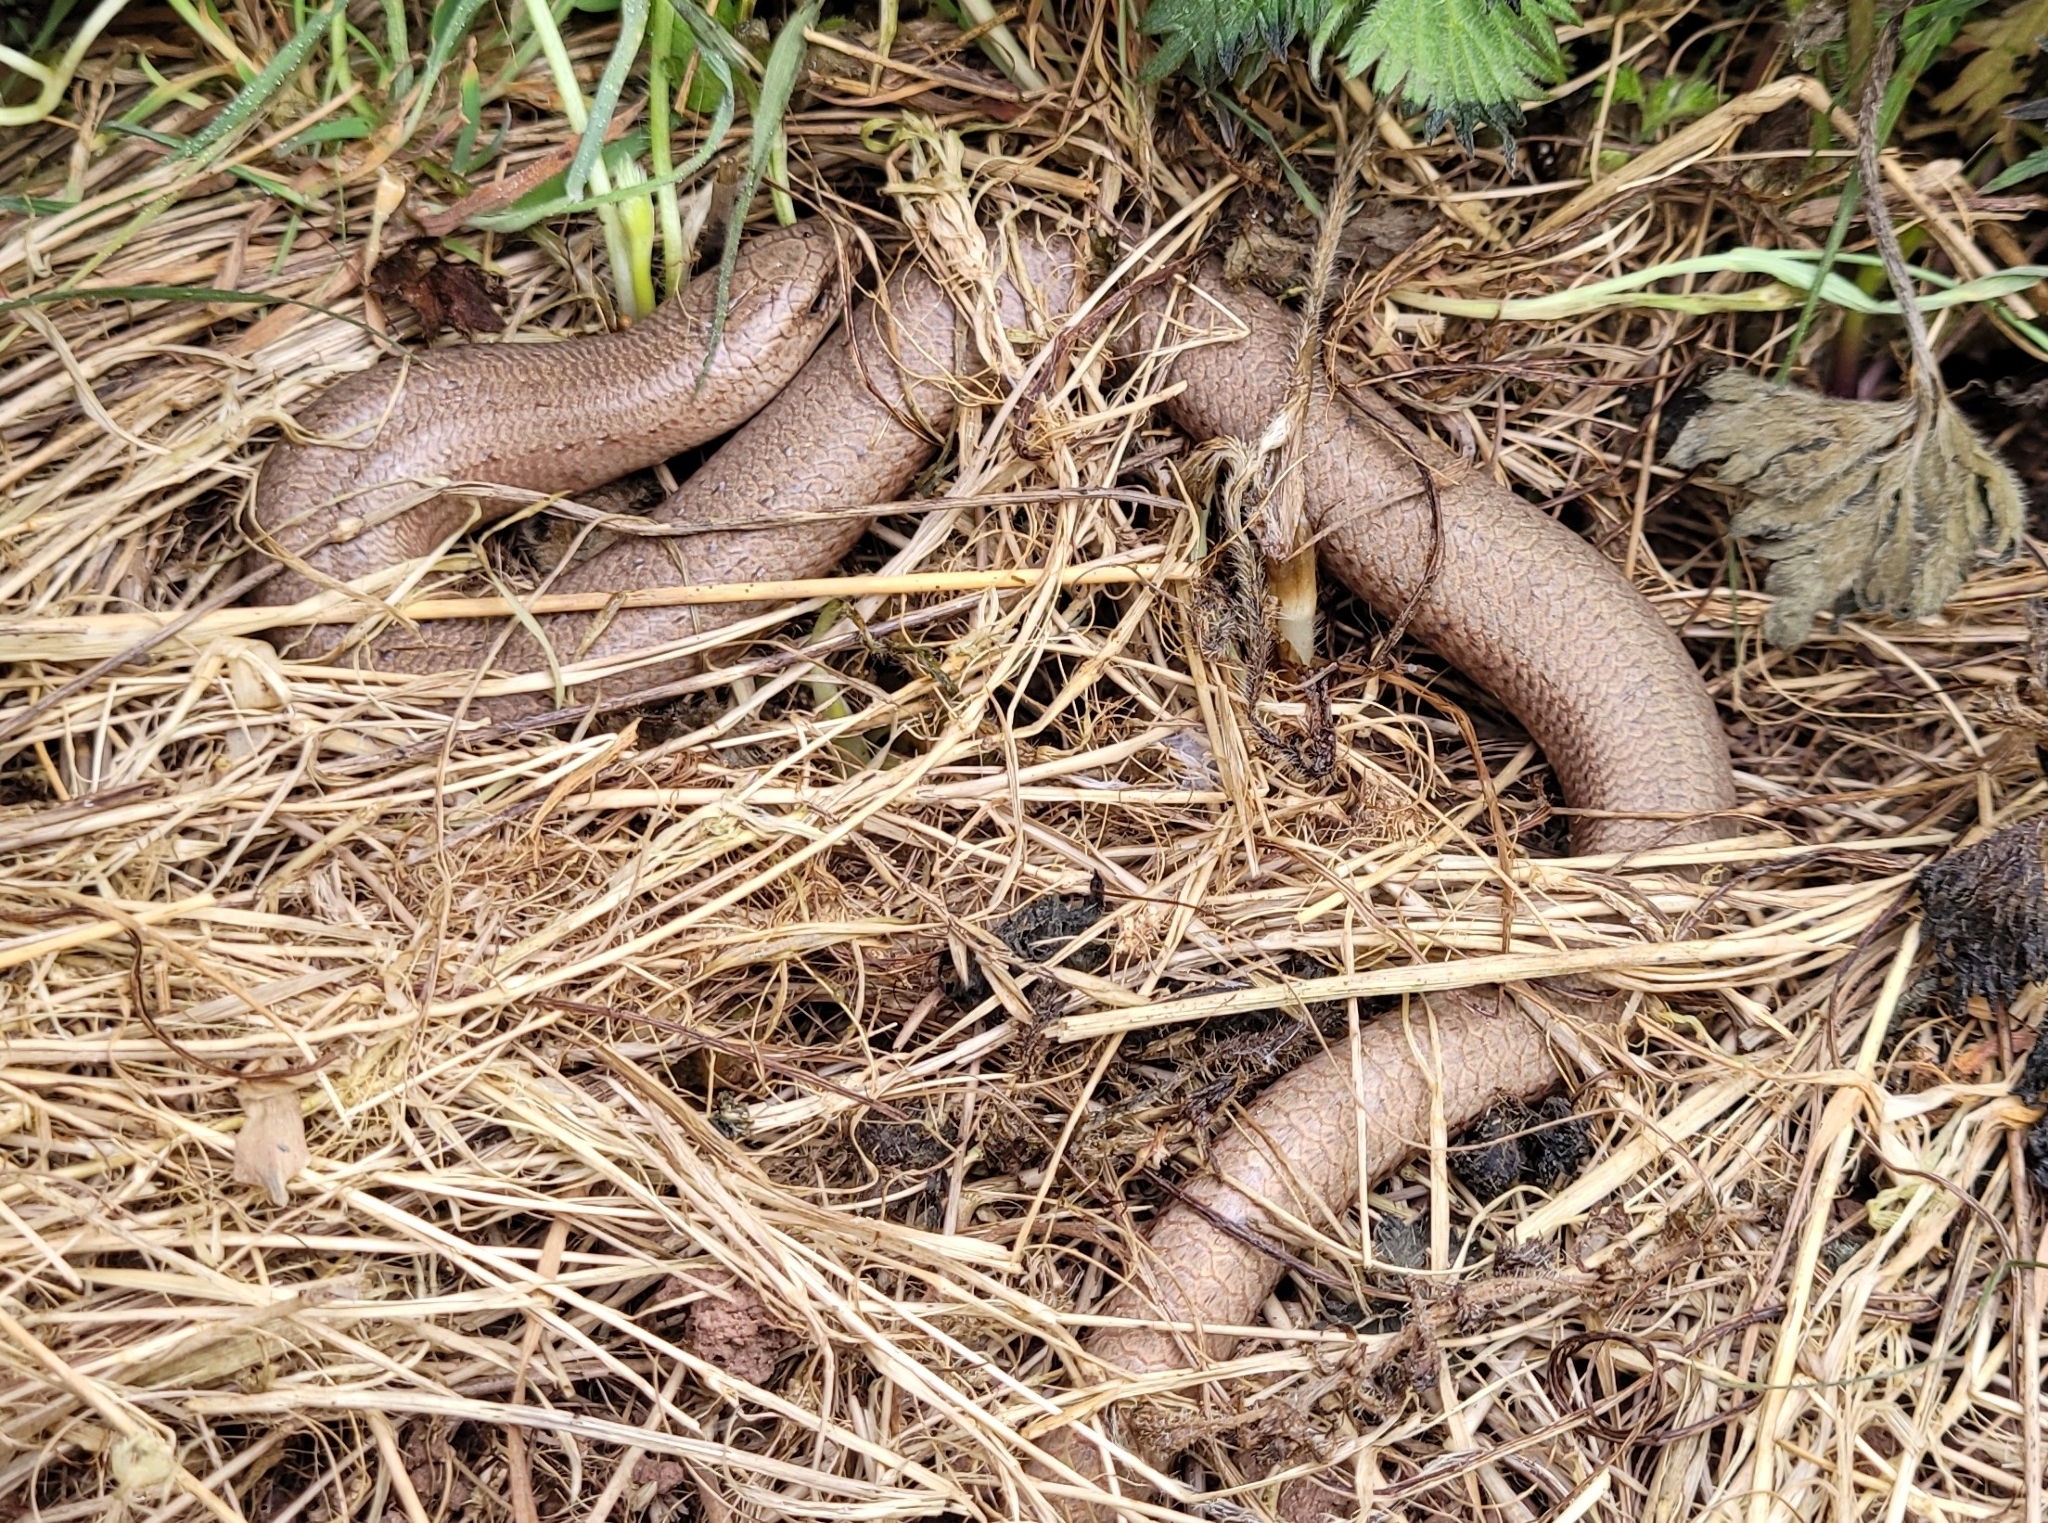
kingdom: Animalia
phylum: Chordata
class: Squamata
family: Anguidae
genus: Anguis
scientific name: Anguis fragilis
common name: Slow worm
